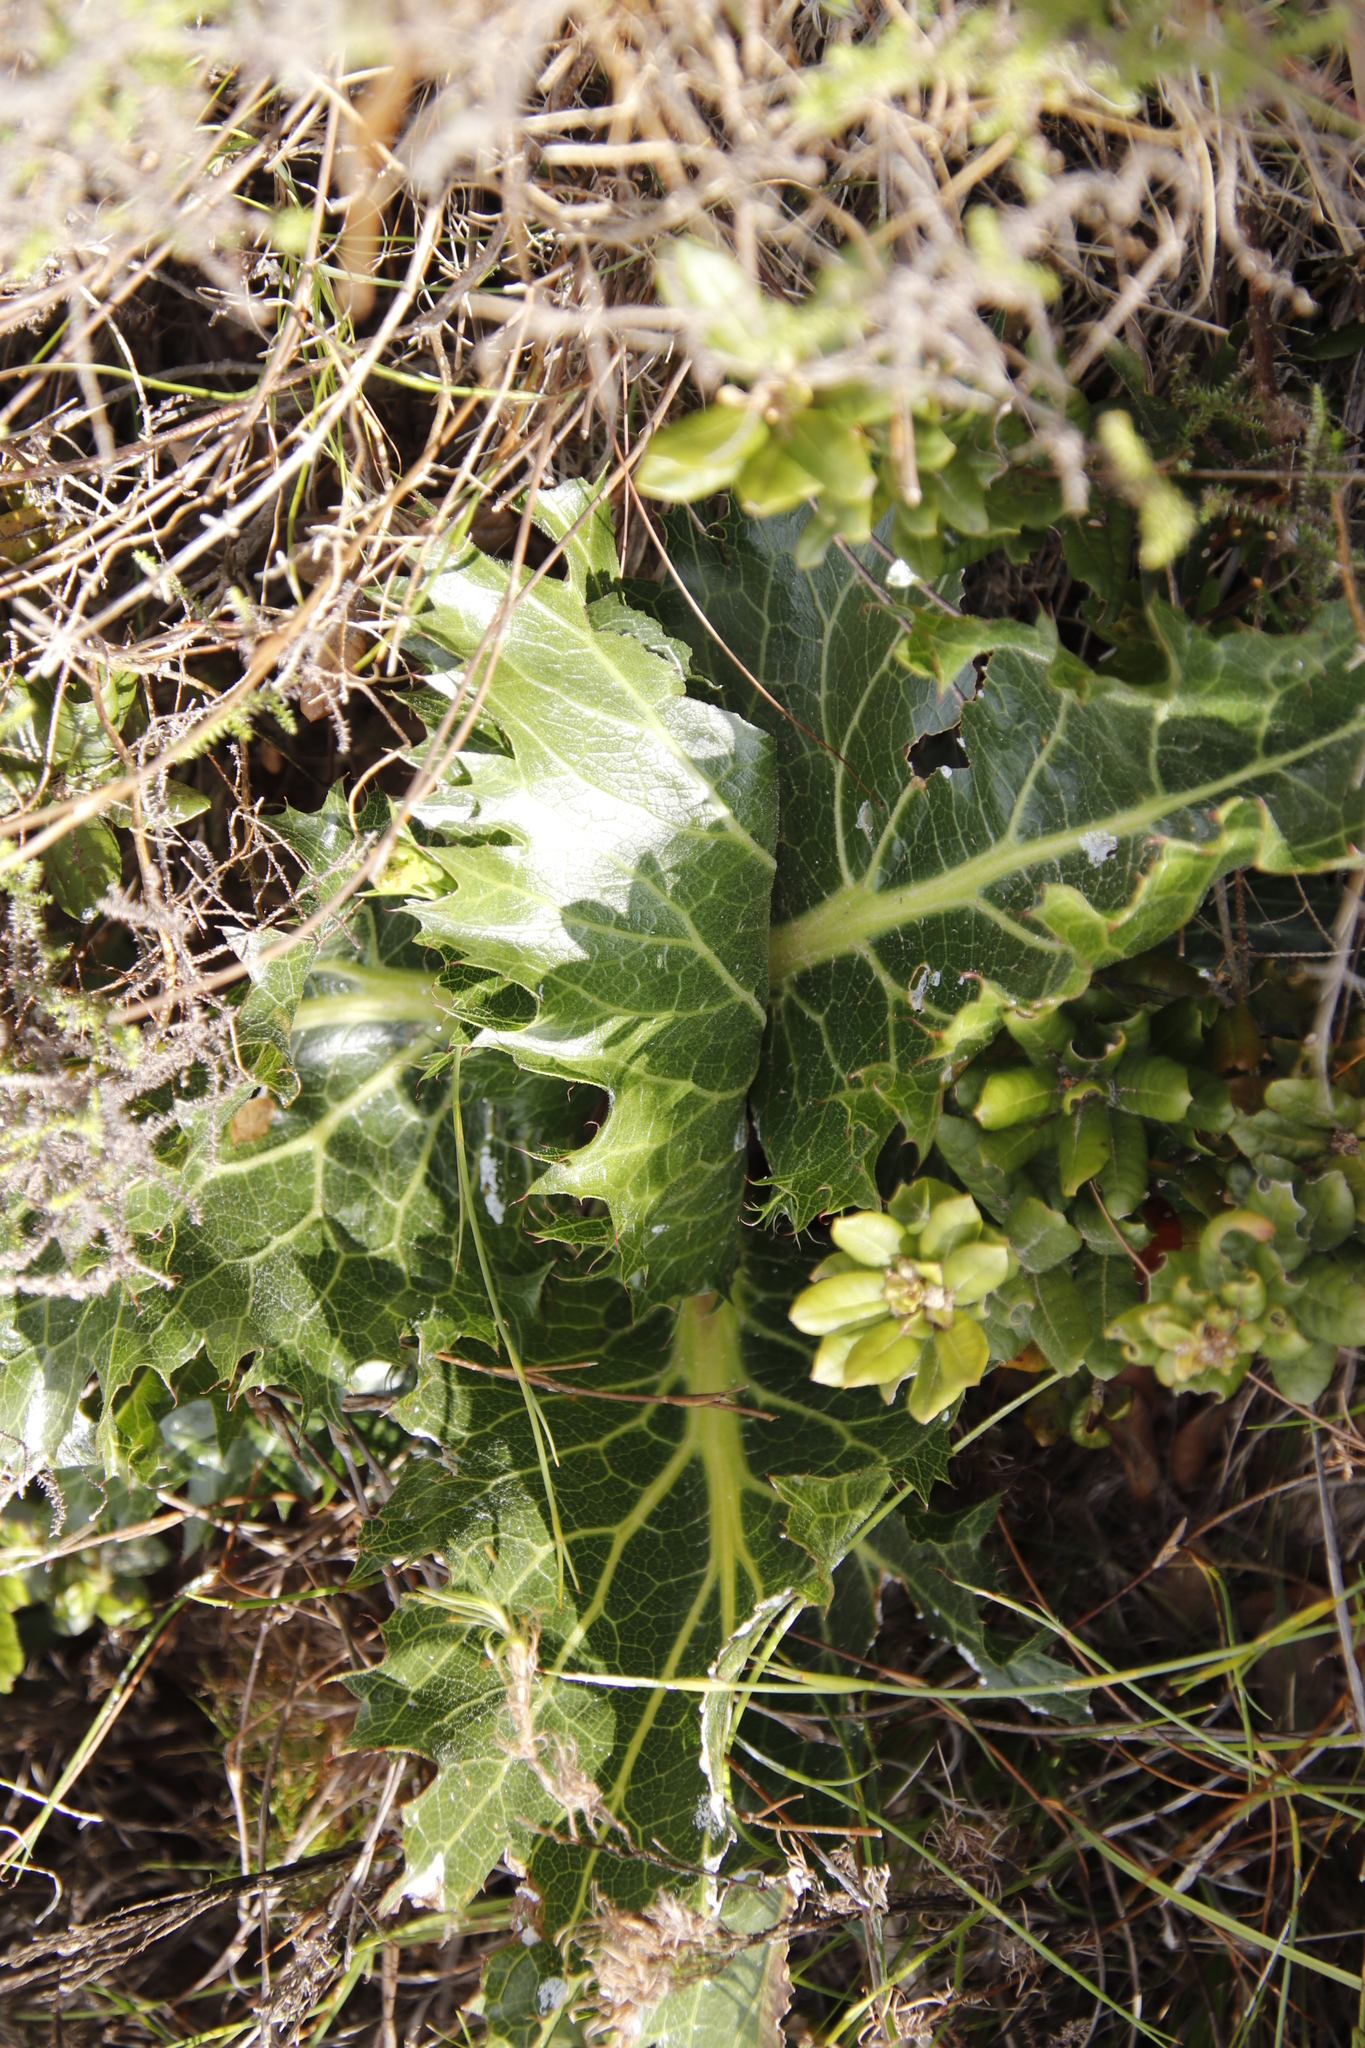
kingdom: Plantae
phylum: Tracheophyta
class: Magnoliopsida
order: Apiales
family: Apiaceae
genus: Lichtensteinia
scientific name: Lichtensteinia lacera
